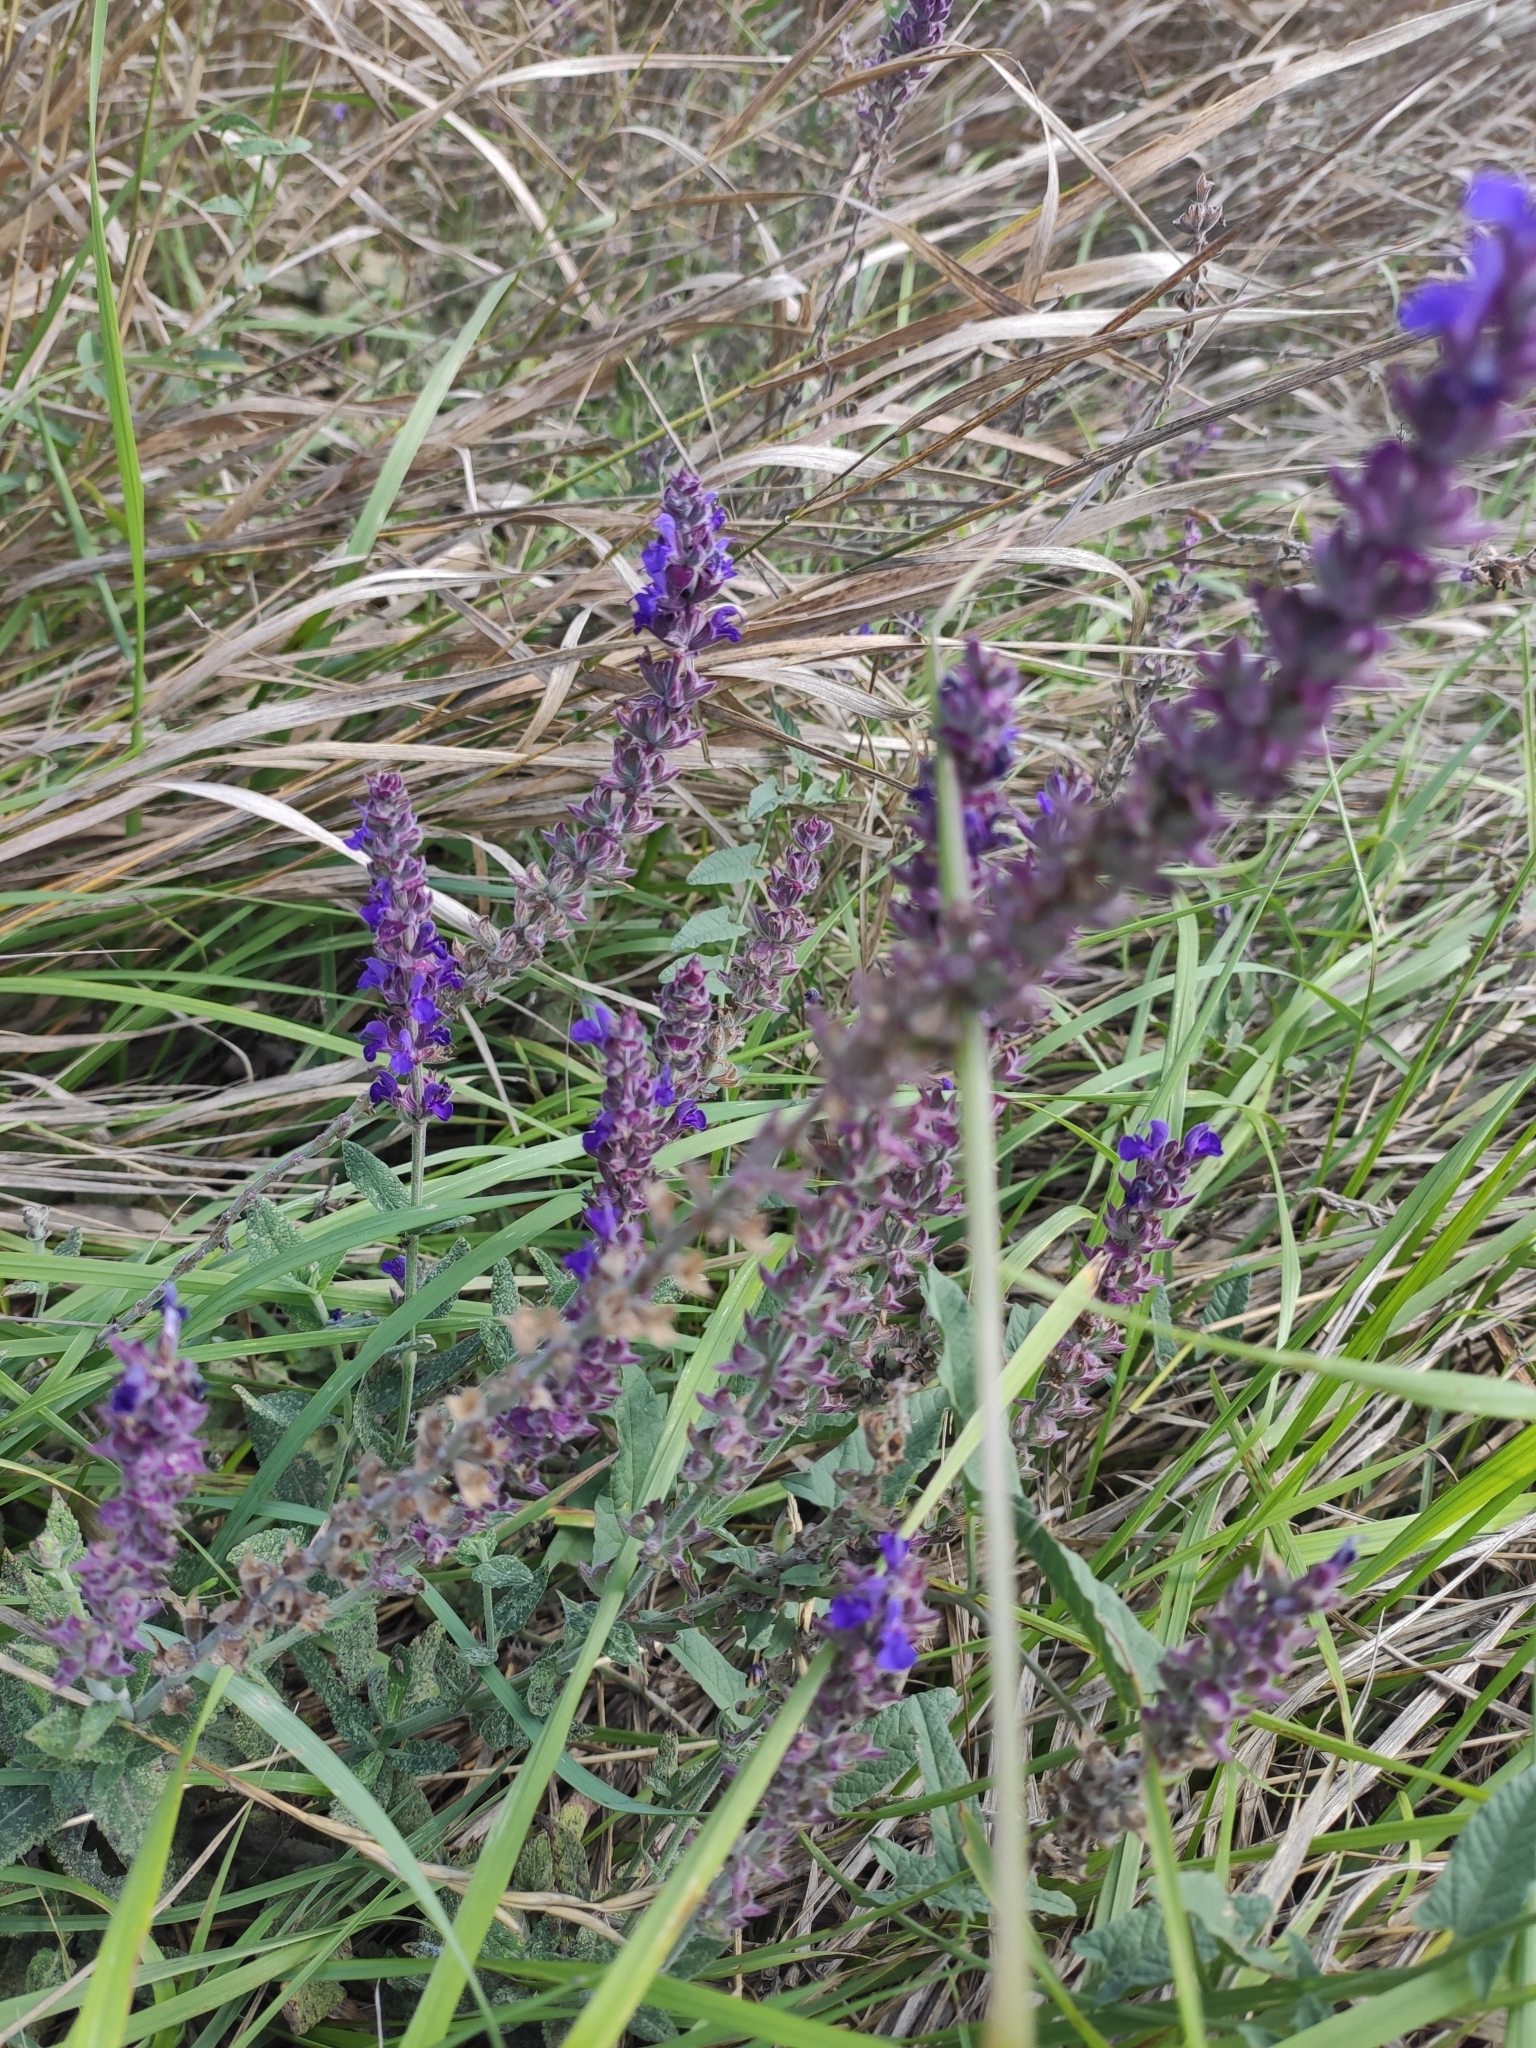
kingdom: Plantae
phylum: Tracheophyta
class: Magnoliopsida
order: Lamiales
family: Lamiaceae
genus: Salvia
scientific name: Salvia nemorosa
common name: Balkan clary
